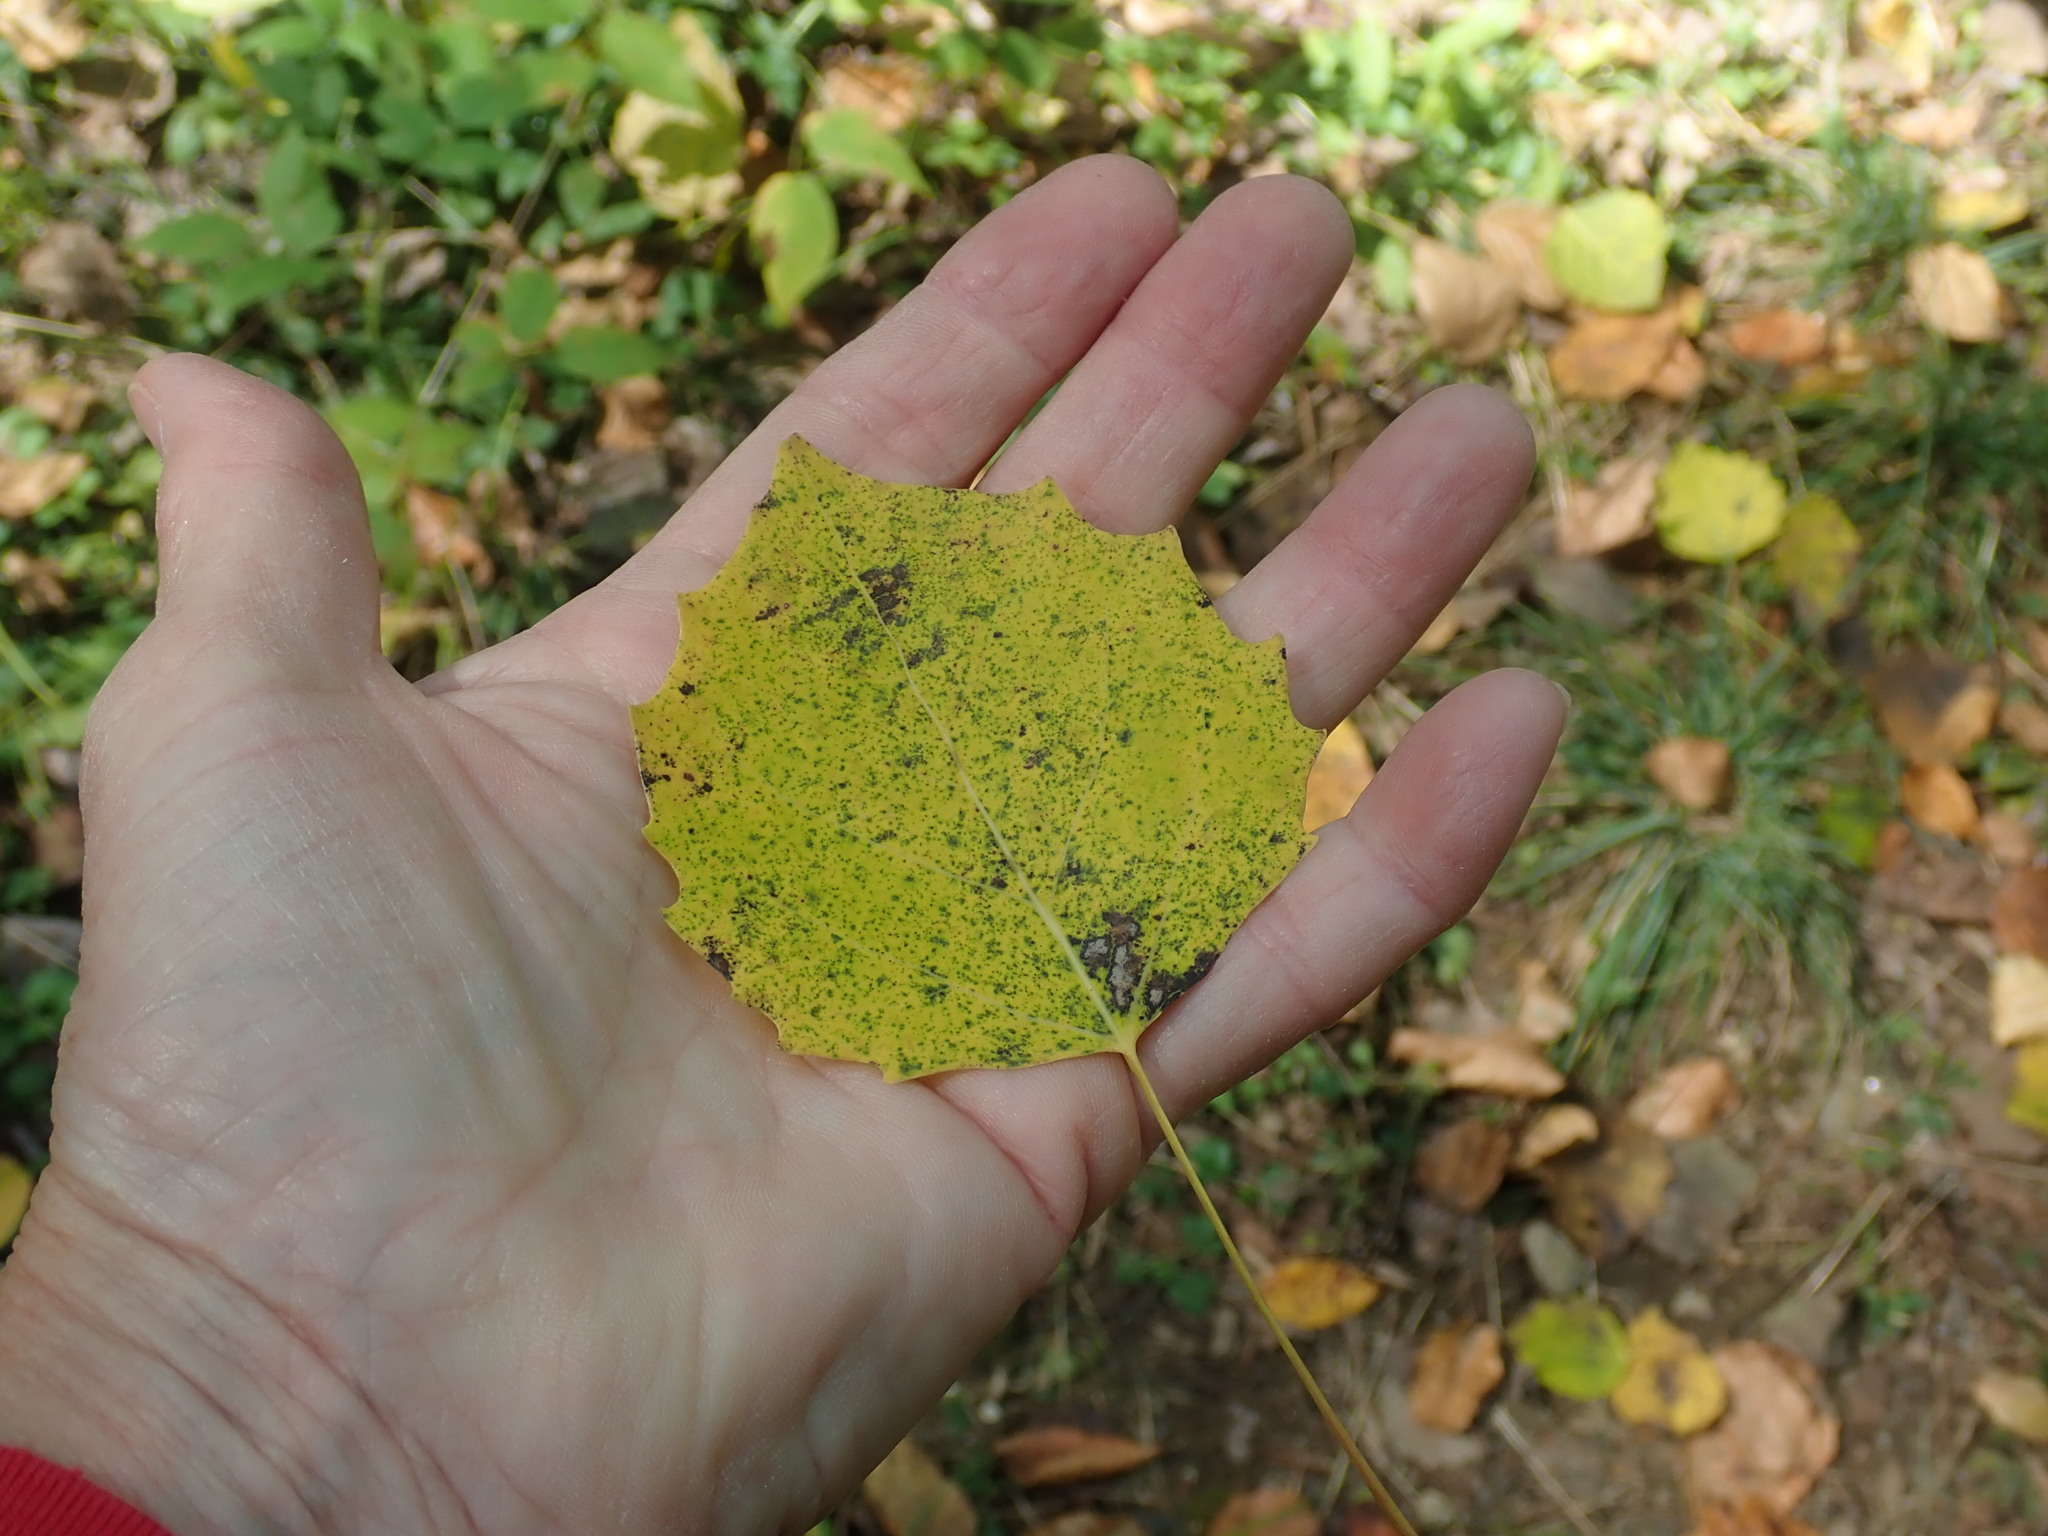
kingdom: Plantae
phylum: Tracheophyta
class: Magnoliopsida
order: Malpighiales
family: Salicaceae
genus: Populus
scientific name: Populus grandidentata
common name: Bigtooth aspen
